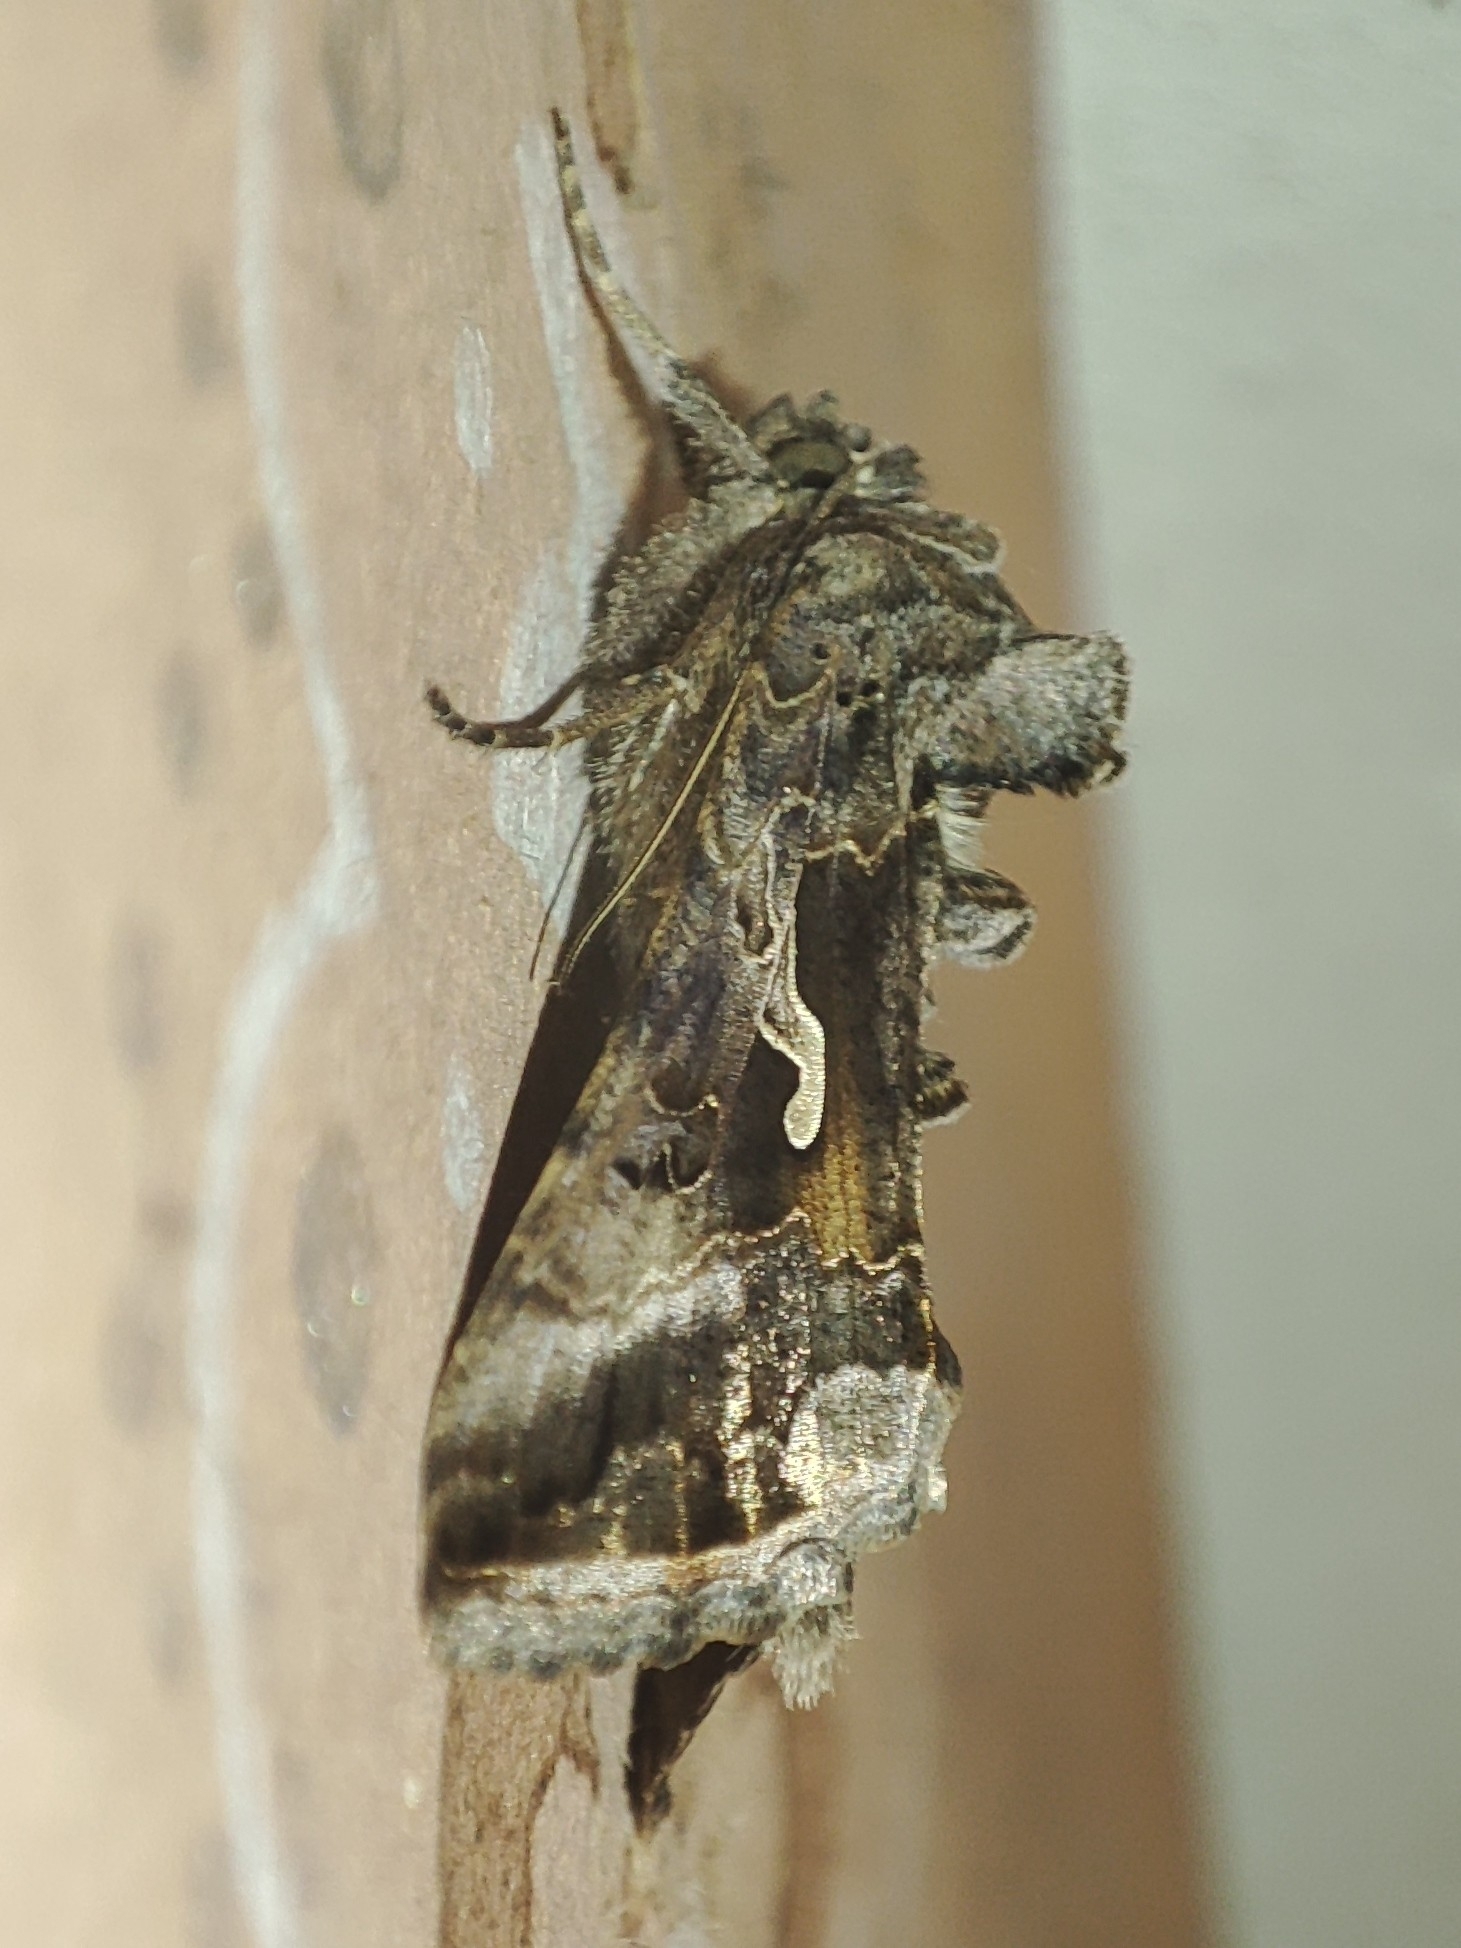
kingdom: Animalia
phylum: Arthropoda
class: Insecta
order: Lepidoptera
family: Noctuidae
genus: Autographa
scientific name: Autographa gamma
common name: Silver y
